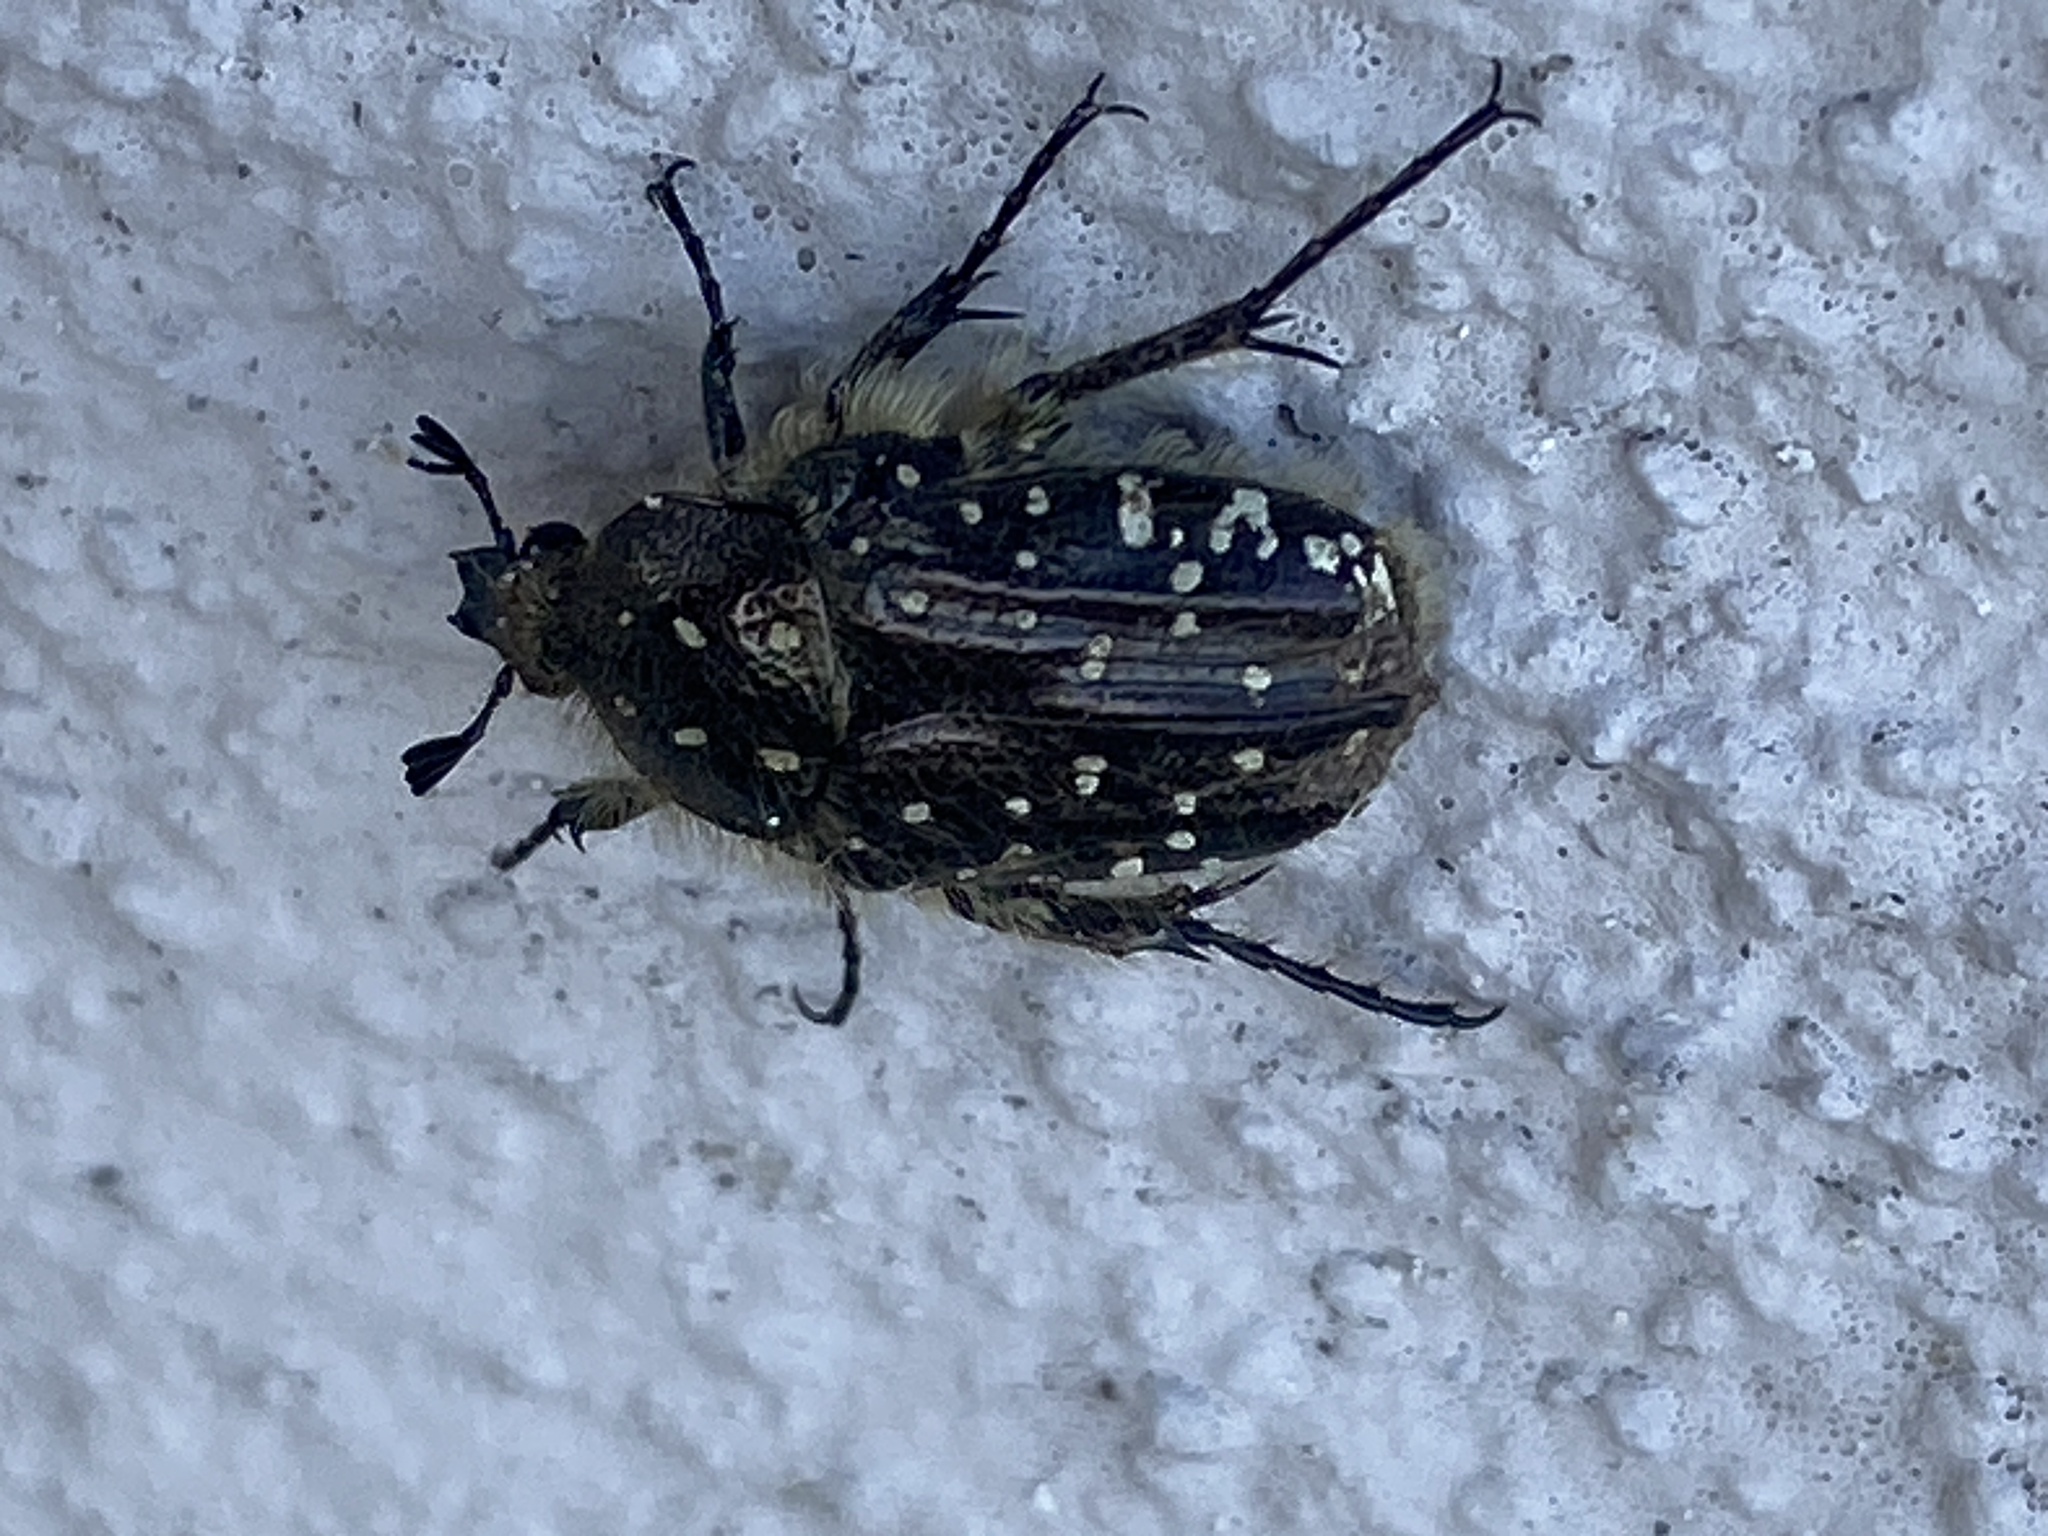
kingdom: Animalia
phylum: Arthropoda
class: Insecta
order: Coleoptera
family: Scarabaeidae
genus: Oxythyrea
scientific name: Oxythyrea funesta
